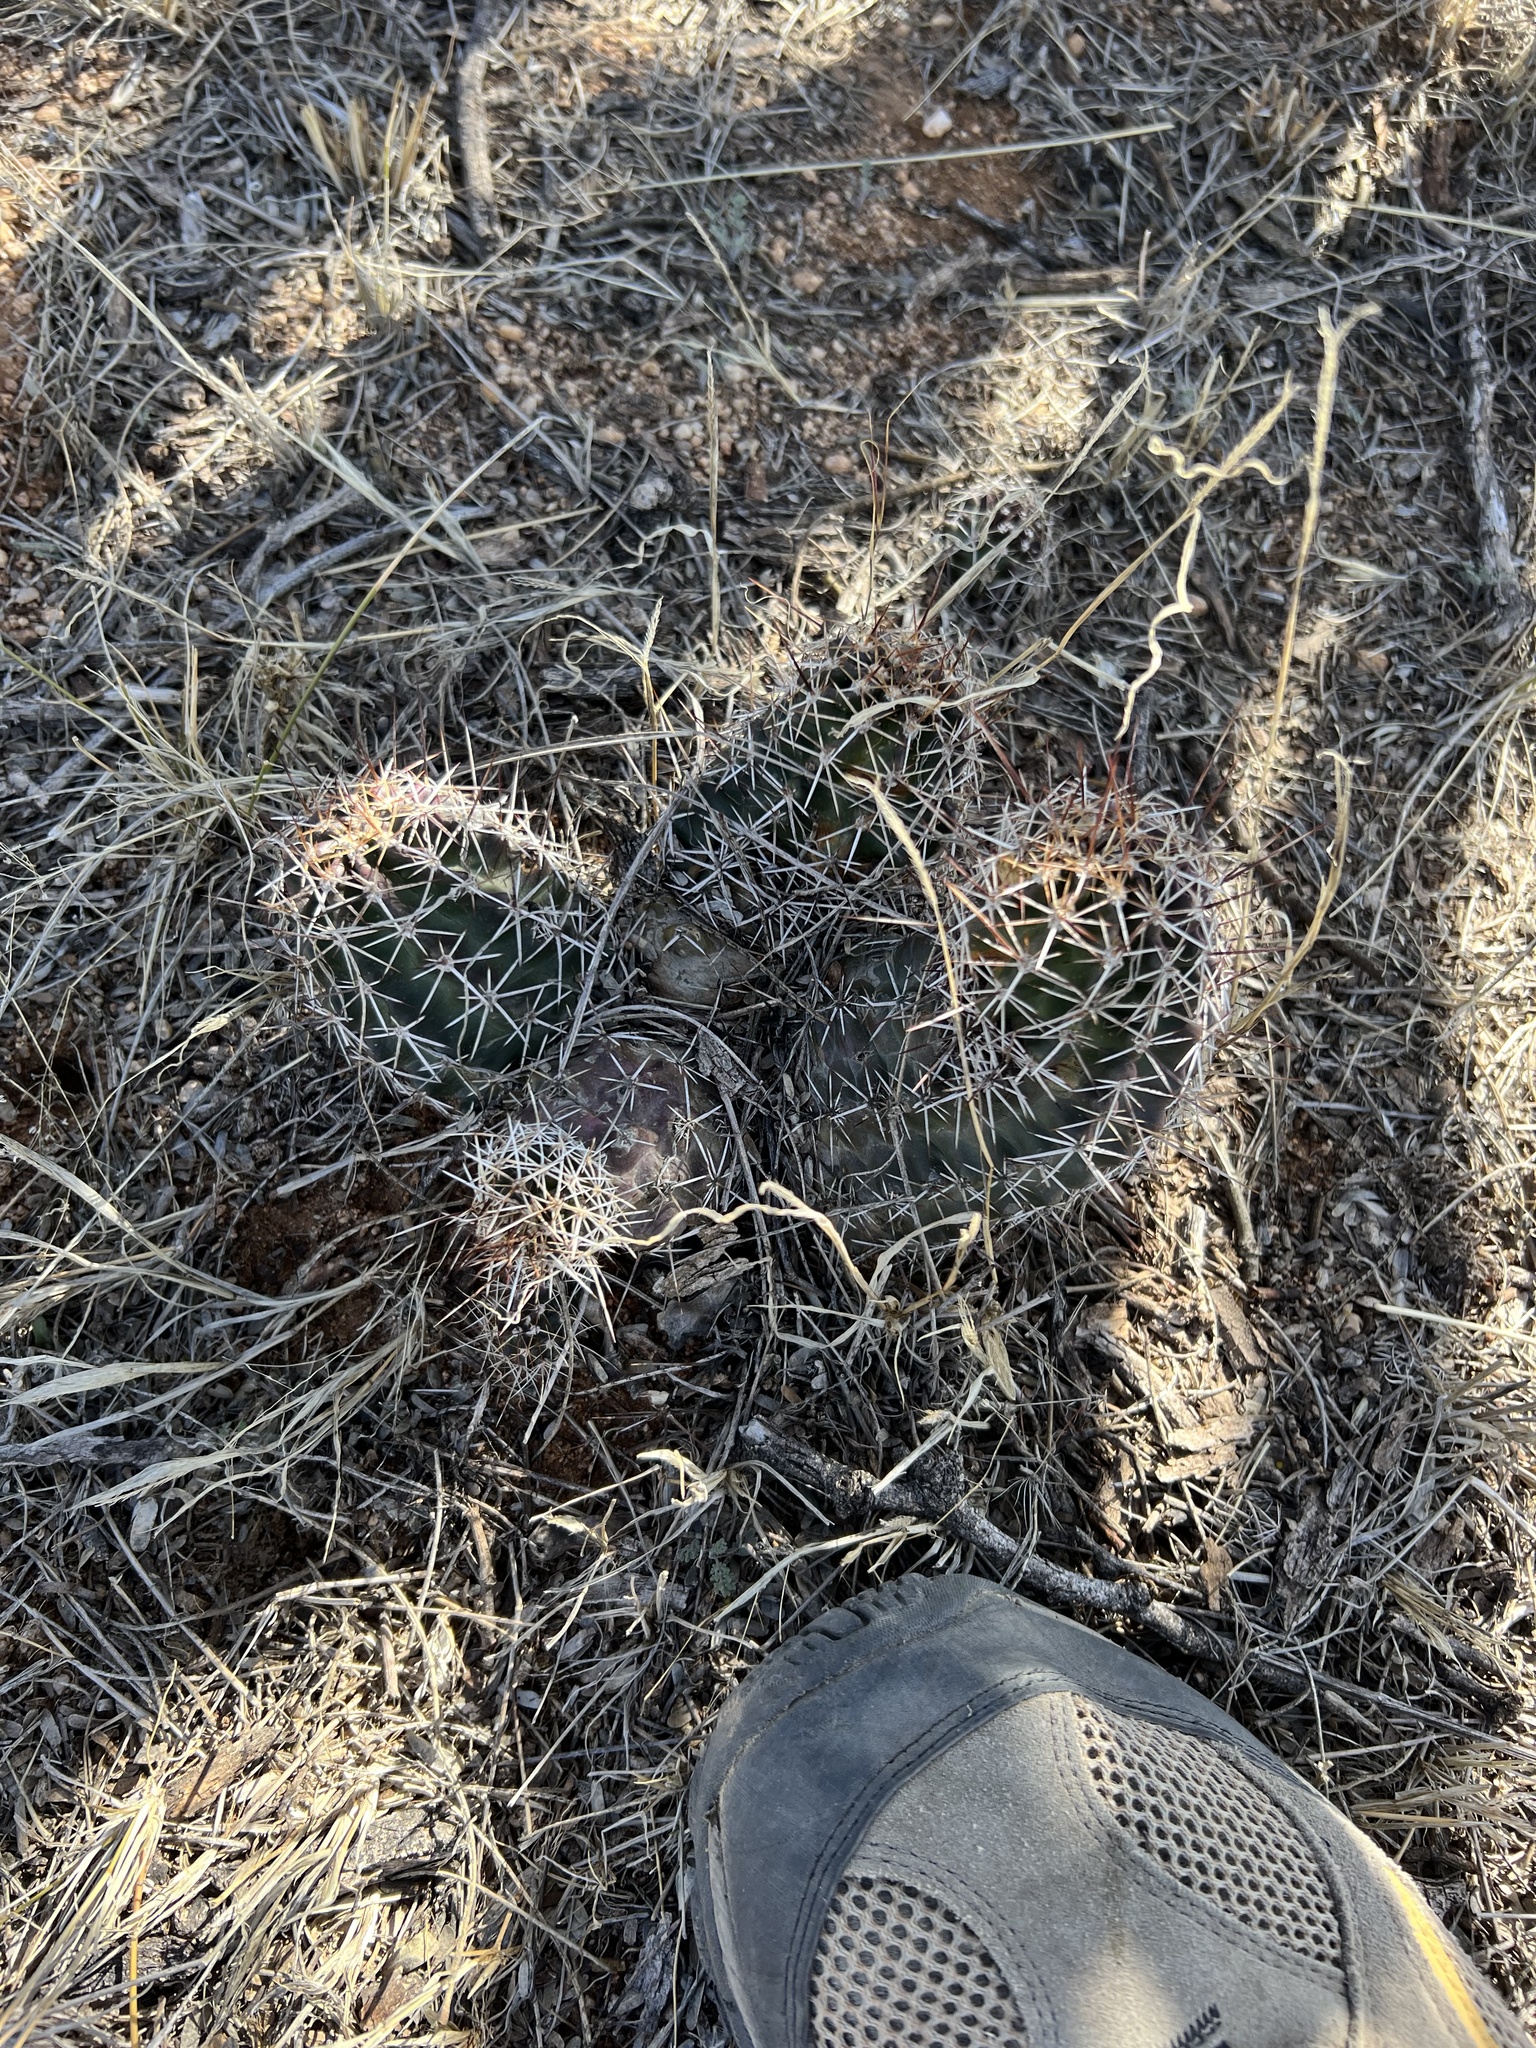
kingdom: Plantae
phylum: Tracheophyta
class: Magnoliopsida
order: Caryophyllales
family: Cactaceae
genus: Echinocereus
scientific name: Echinocereus fendleri
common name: Fendler's hedgehog cactus
